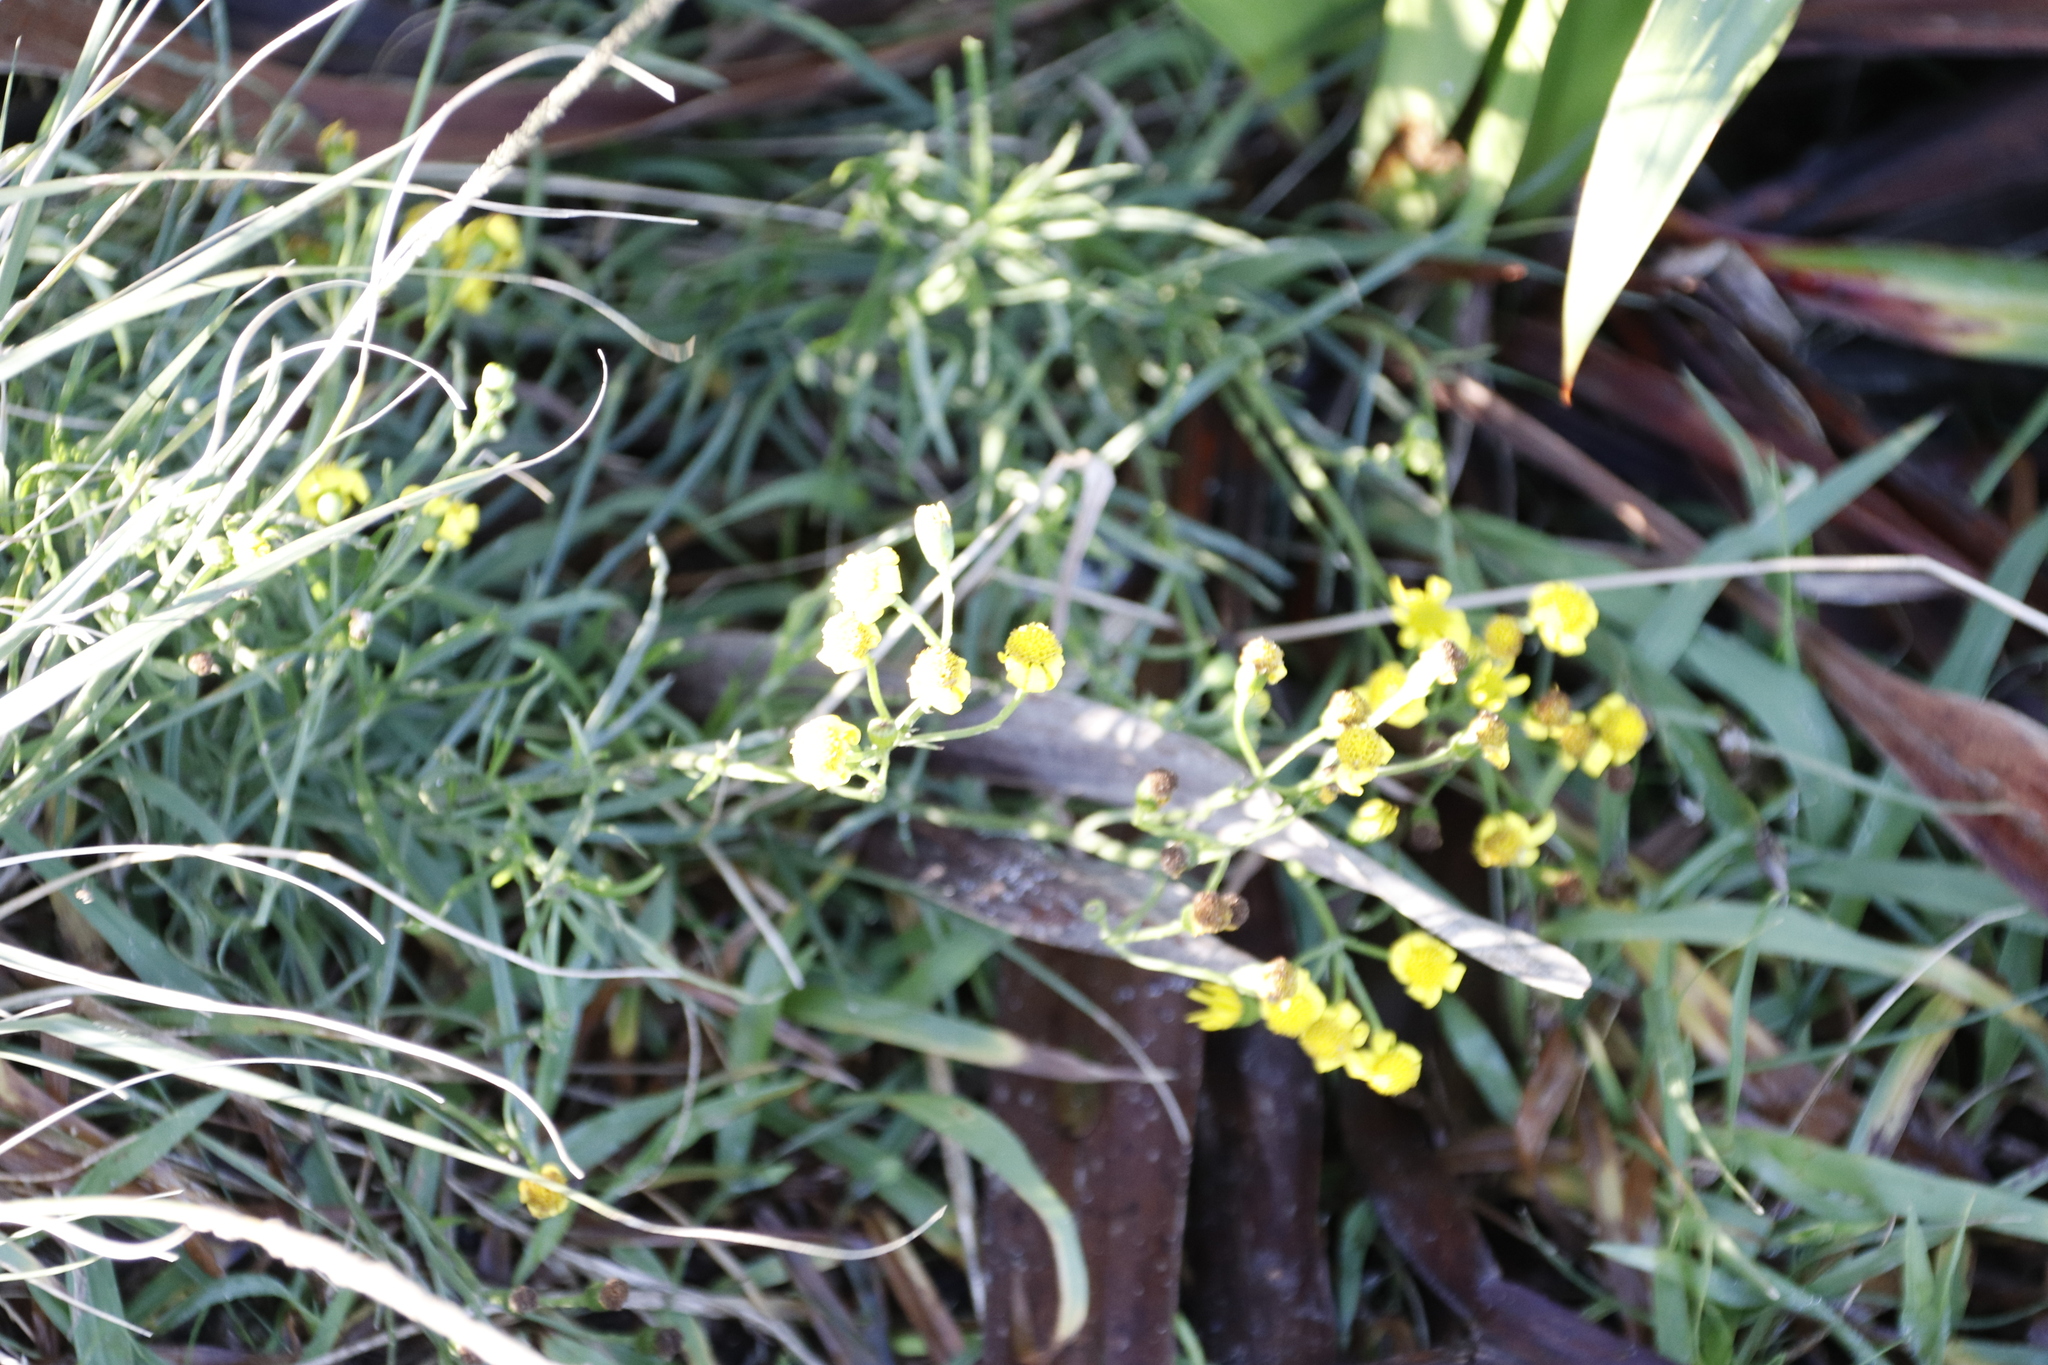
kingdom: Plantae
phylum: Tracheophyta
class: Magnoliopsida
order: Asterales
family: Asteraceae
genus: Senecio
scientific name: Senecio burchellii
